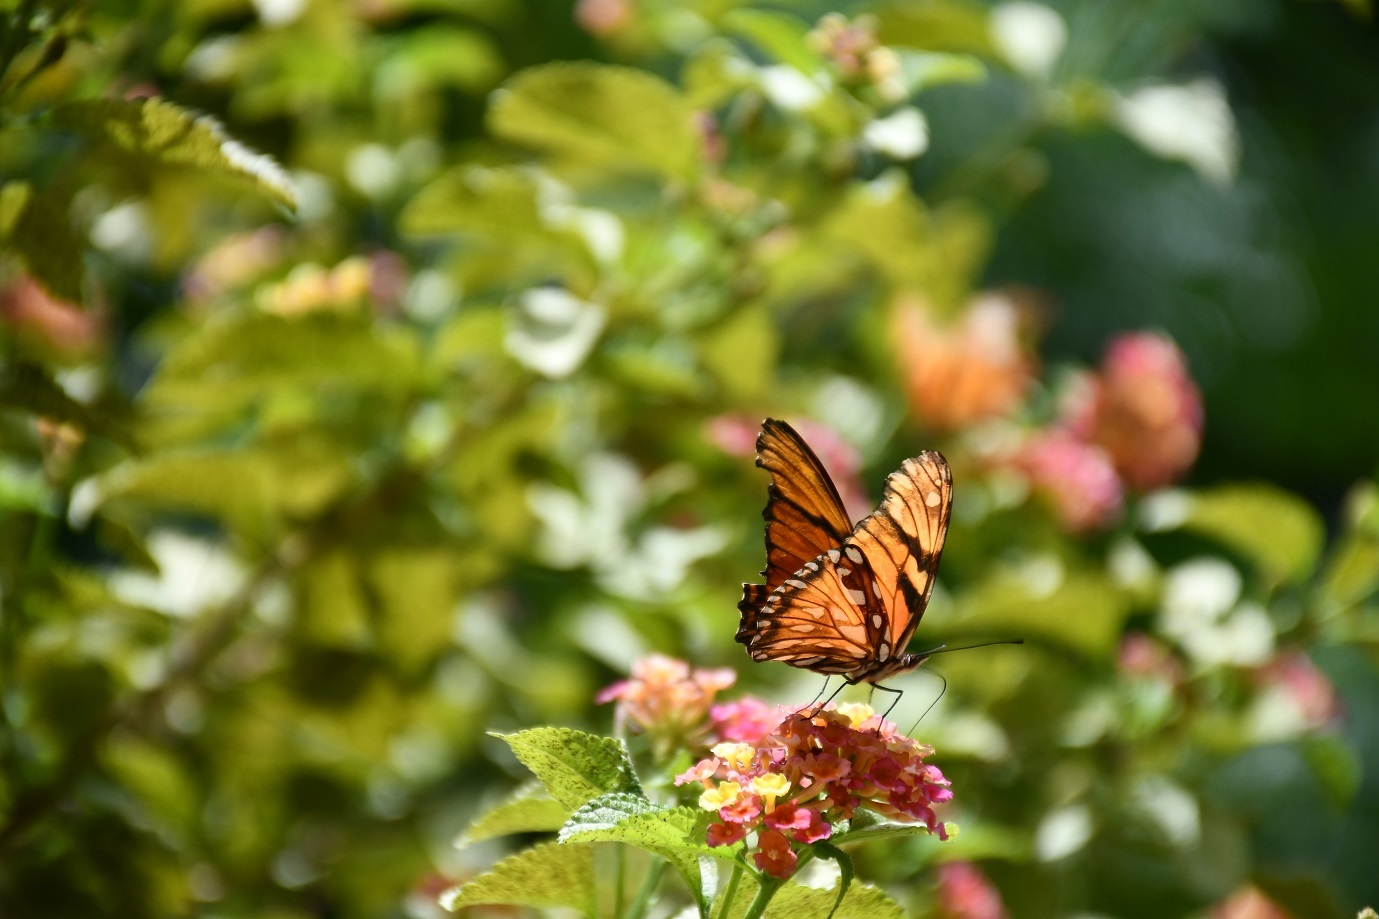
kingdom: Animalia
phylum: Arthropoda
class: Insecta
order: Lepidoptera
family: Nymphalidae
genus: Dione
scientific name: Dione juno
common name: Juno silverspot
